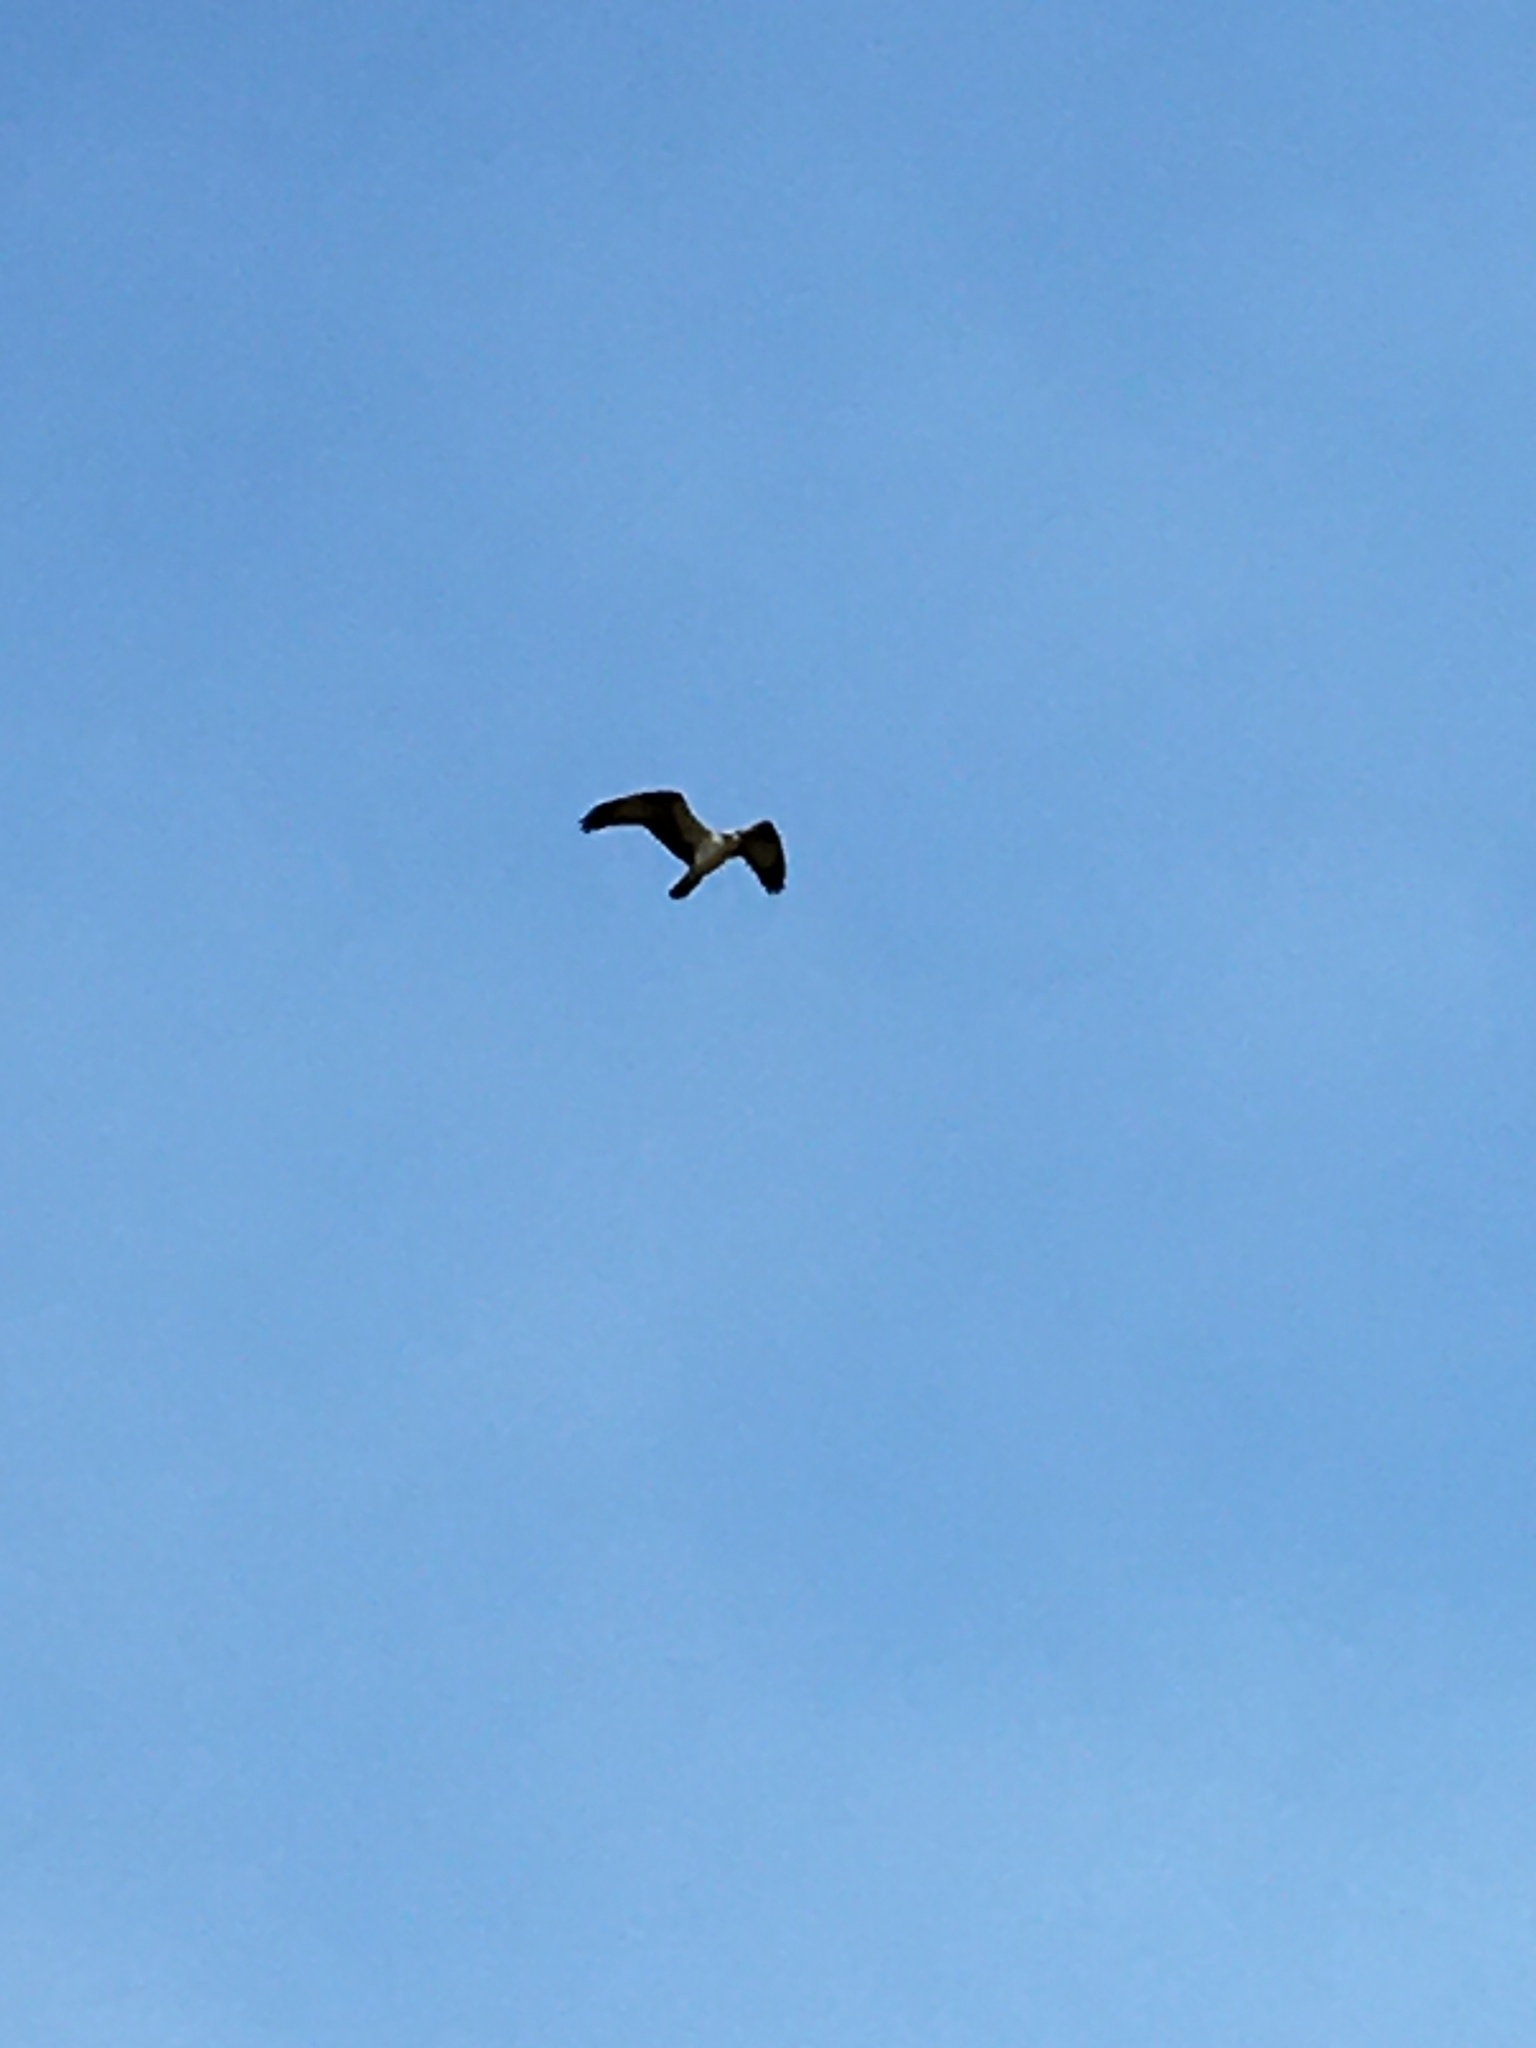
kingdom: Animalia
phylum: Chordata
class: Aves
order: Accipitriformes
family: Pandionidae
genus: Pandion
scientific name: Pandion haliaetus
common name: Osprey
